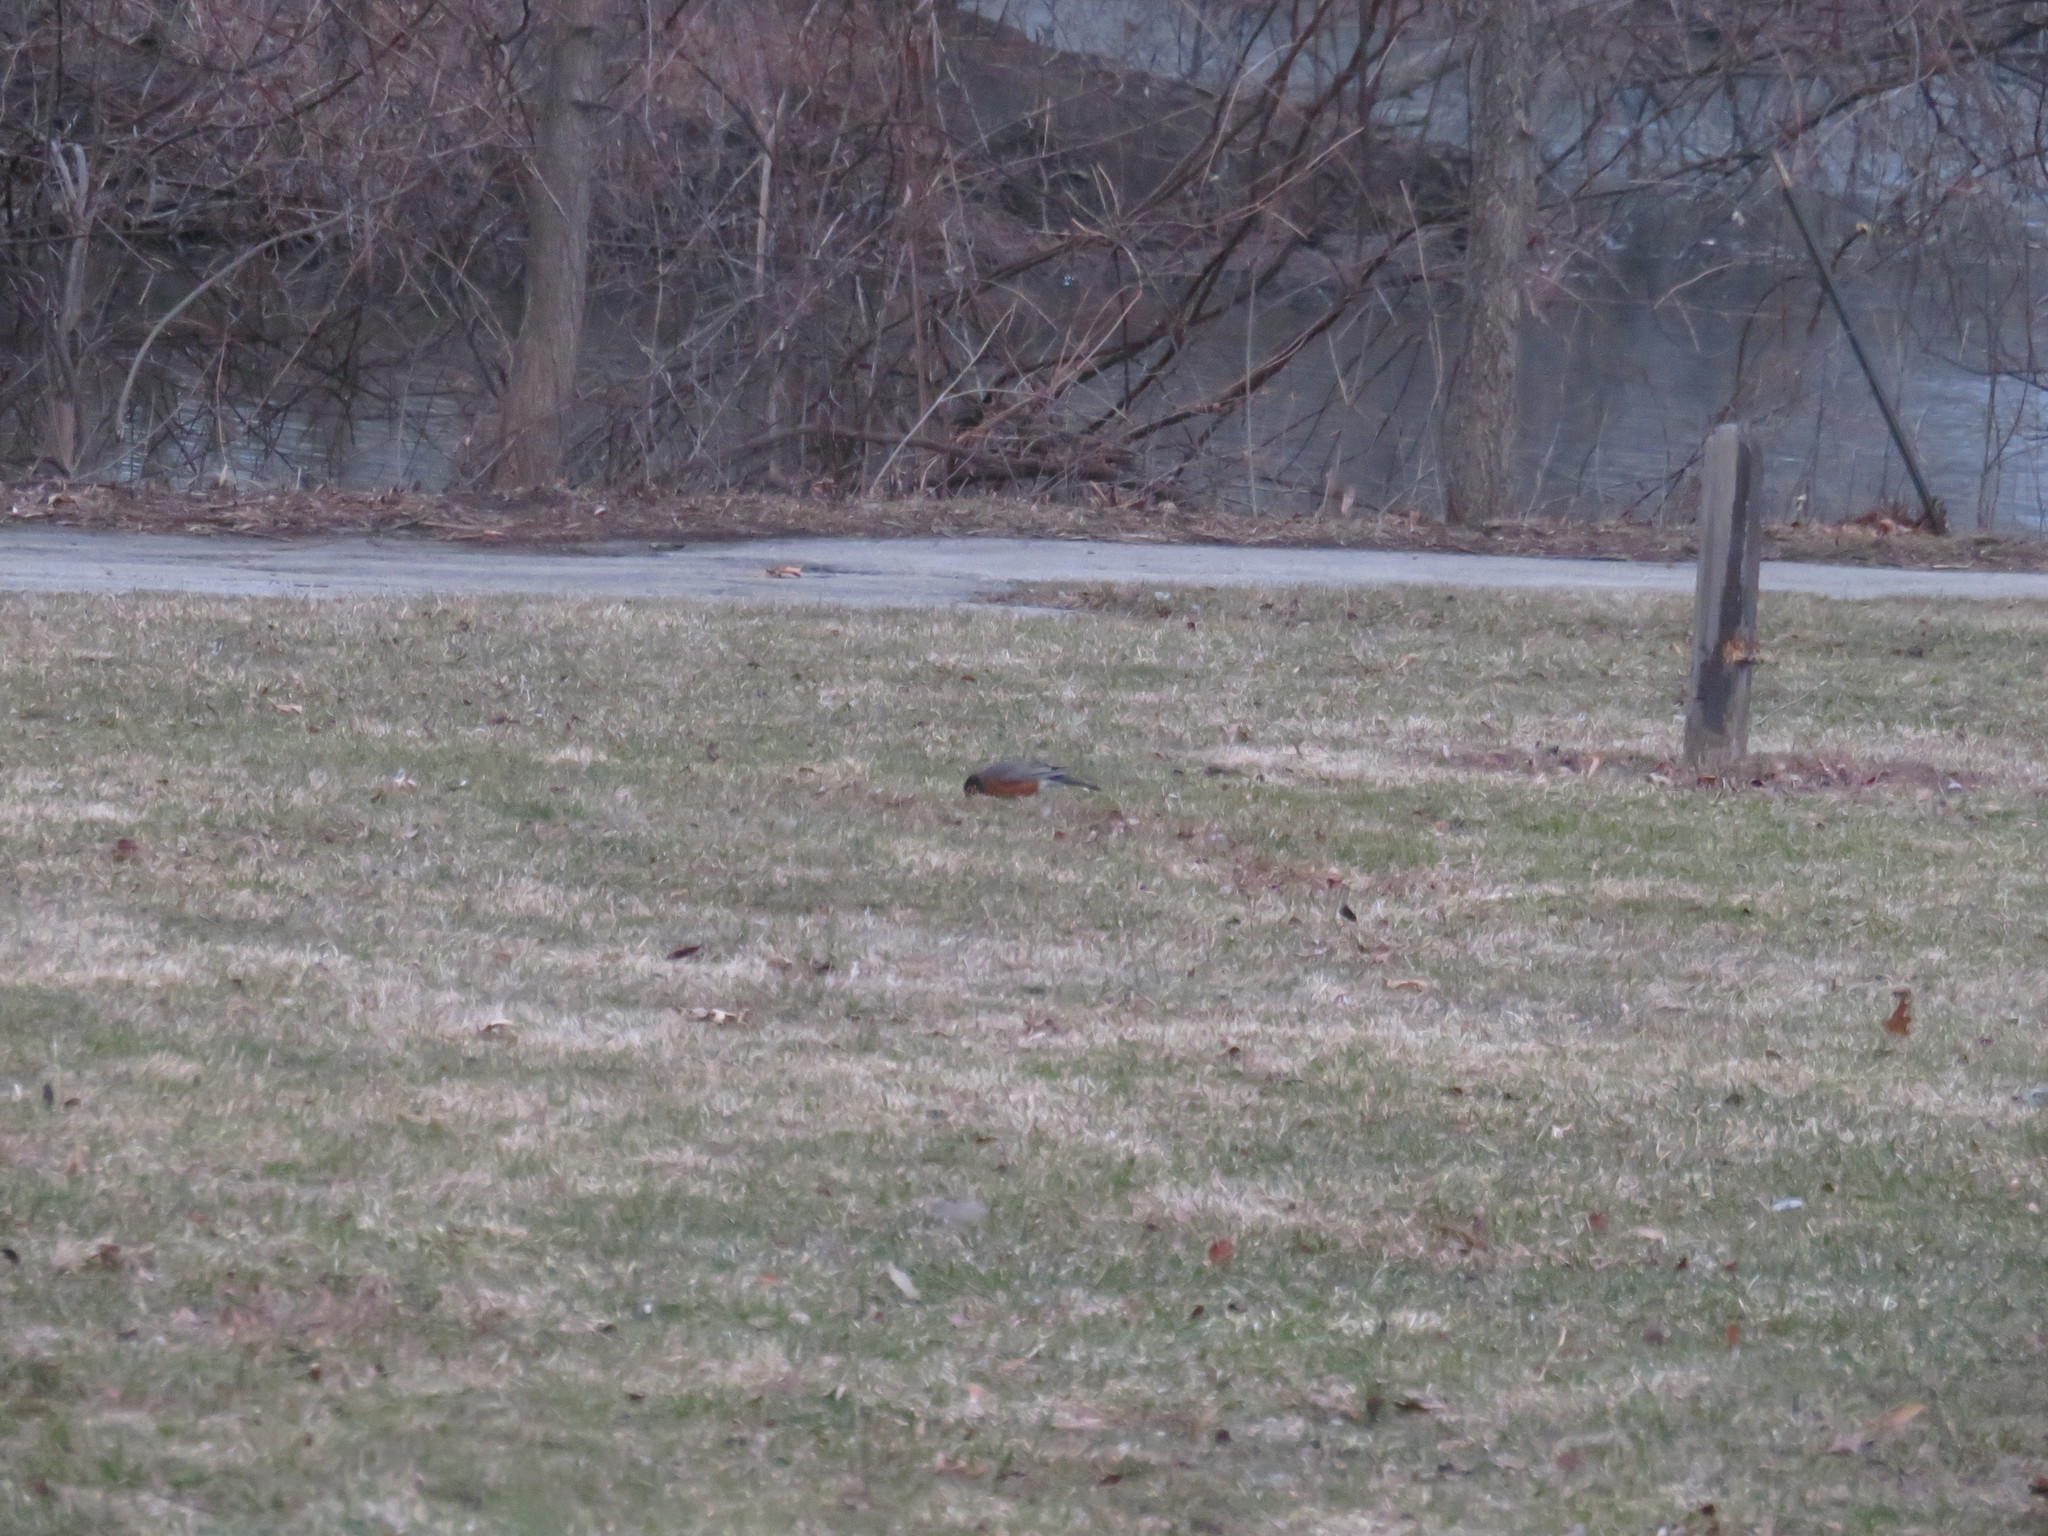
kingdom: Animalia
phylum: Chordata
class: Aves
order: Passeriformes
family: Turdidae
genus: Turdus
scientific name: Turdus migratorius
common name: American robin
